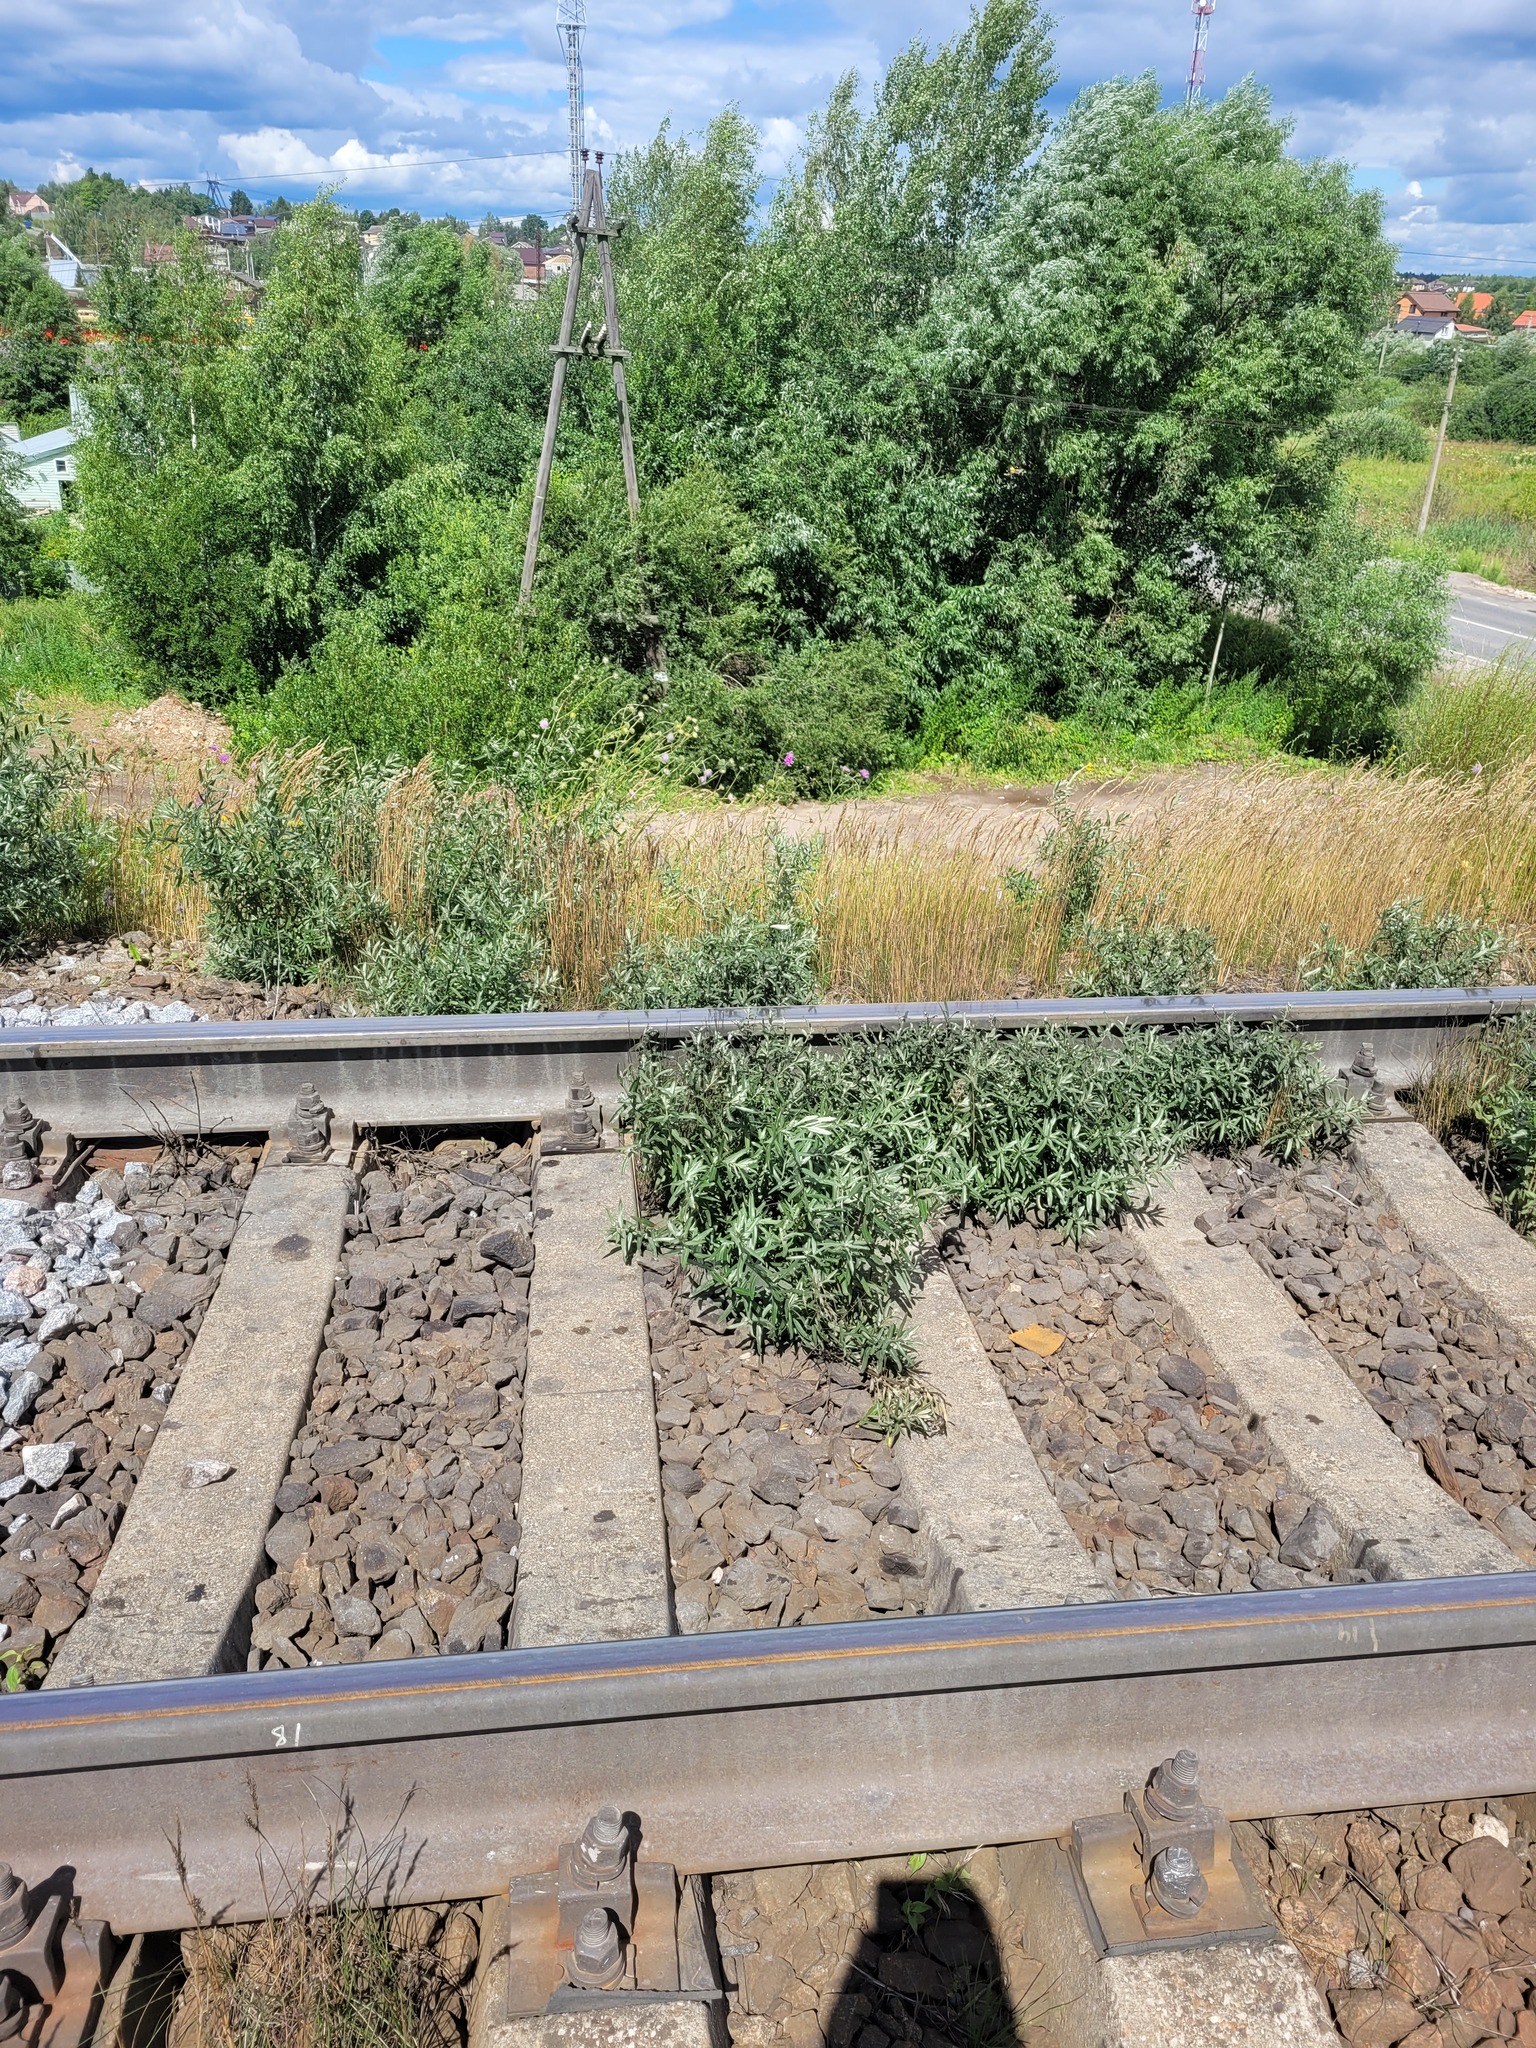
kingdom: Plantae
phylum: Tracheophyta
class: Magnoliopsida
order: Rosales
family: Elaeagnaceae
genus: Hippophae
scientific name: Hippophae rhamnoides
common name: Sea-buckthorn
